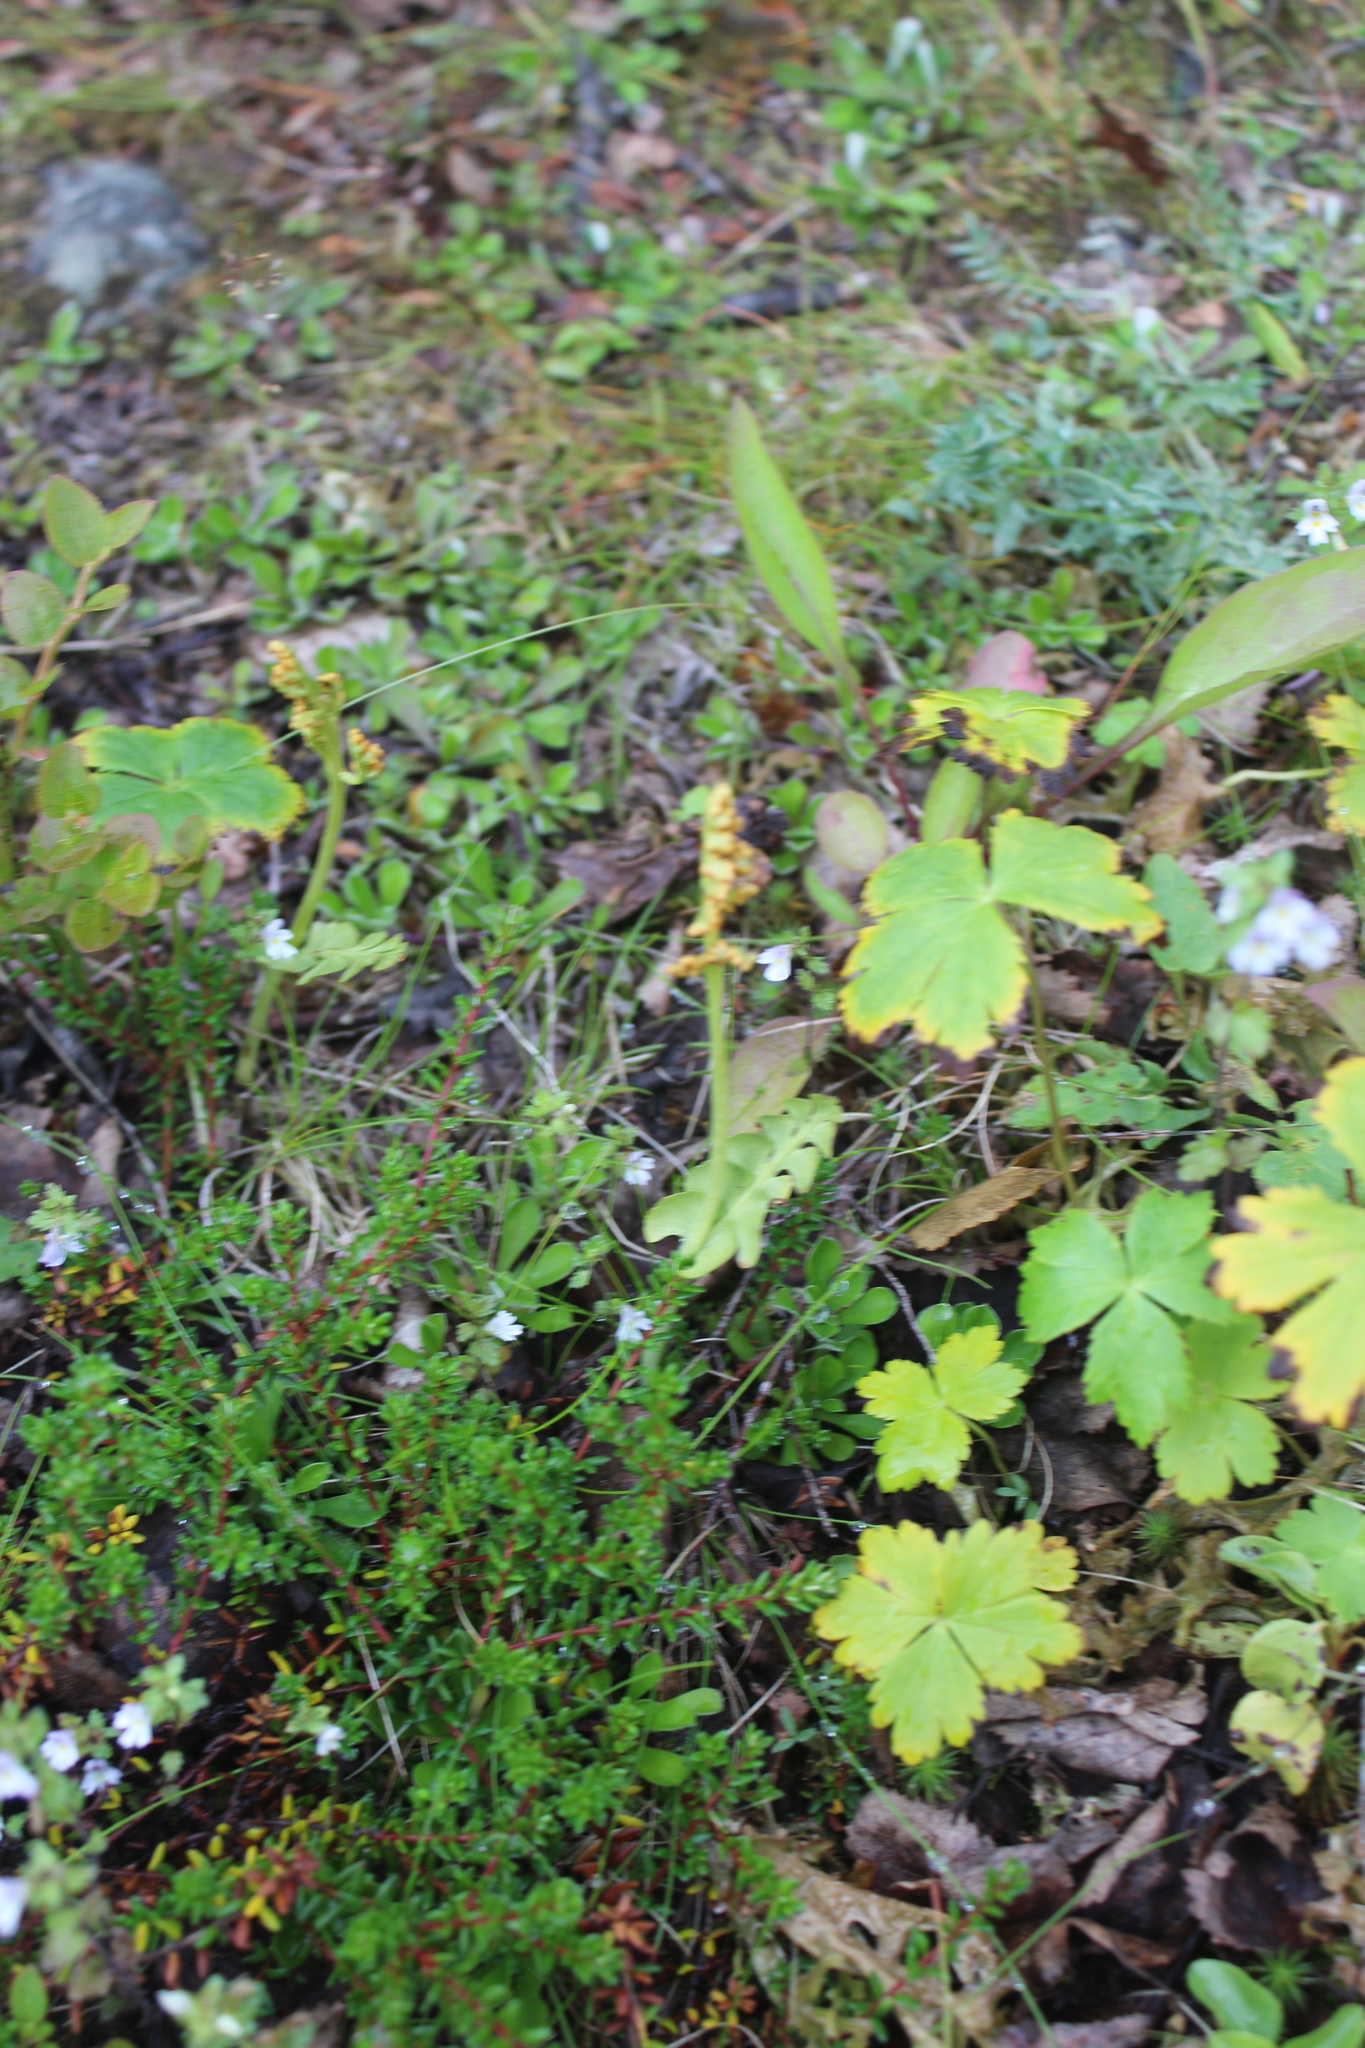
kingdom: Plantae
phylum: Tracheophyta
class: Polypodiopsida
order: Ophioglossales
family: Ophioglossaceae
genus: Botrychium
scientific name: Botrychium lunaria
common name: Moonwort
